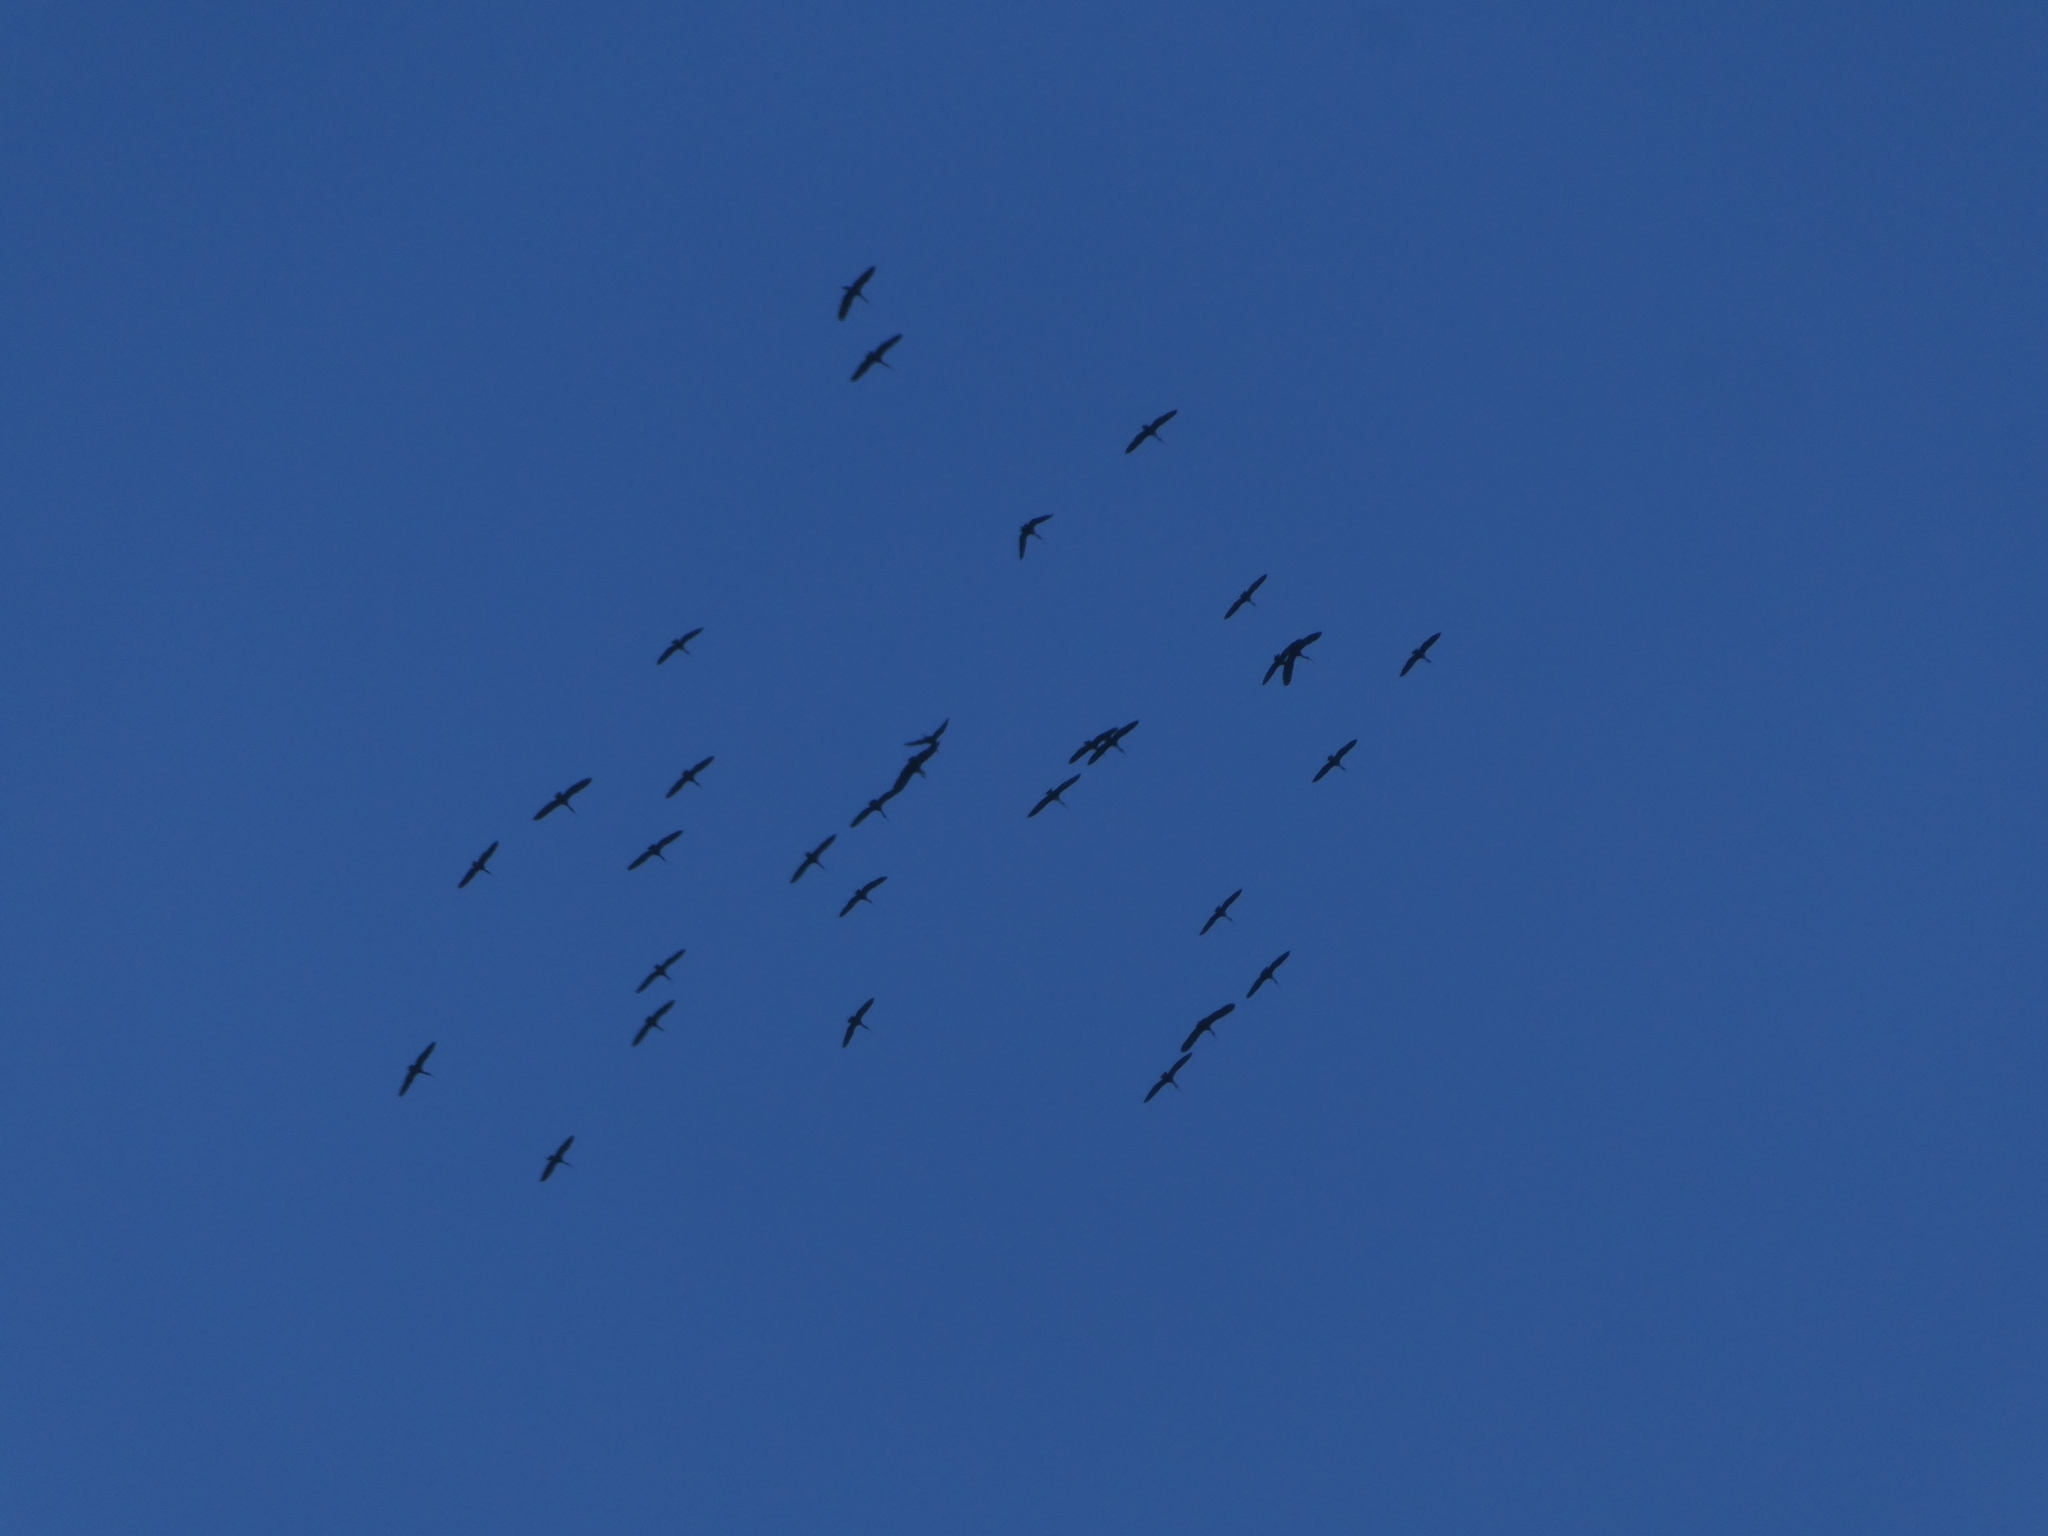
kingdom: Animalia
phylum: Chordata
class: Aves
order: Suliformes
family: Phalacrocoracidae
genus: Phalacrocorax
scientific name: Phalacrocorax carbo
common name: Great cormorant
